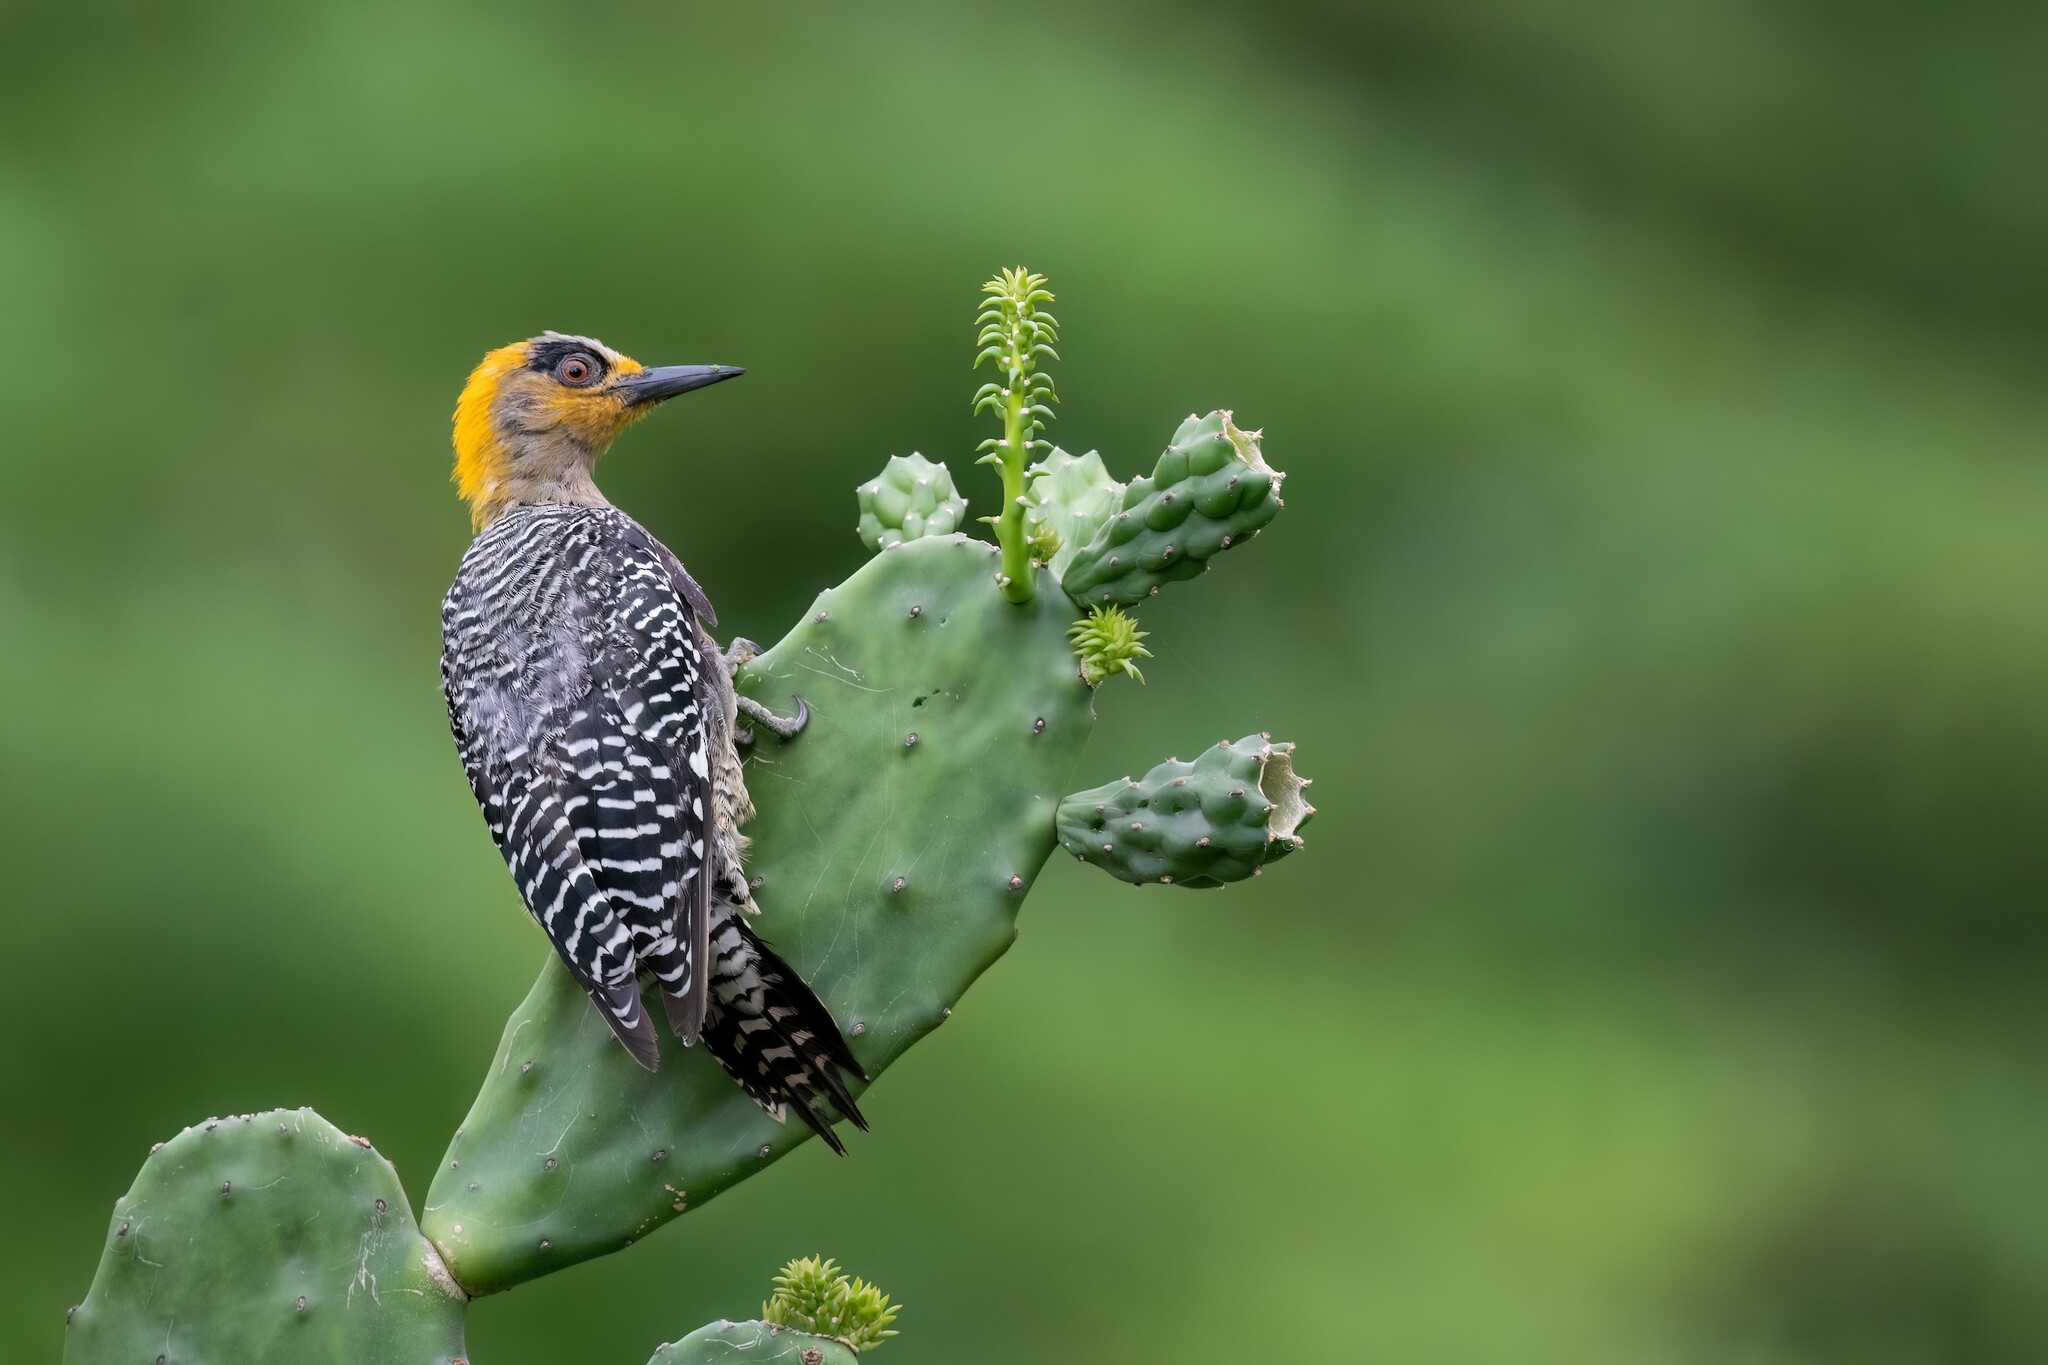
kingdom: Animalia
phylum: Chordata
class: Aves
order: Piciformes
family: Picidae
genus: Melanerpes
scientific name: Melanerpes chrysogenys
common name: Golden-cheeked woodpecker
